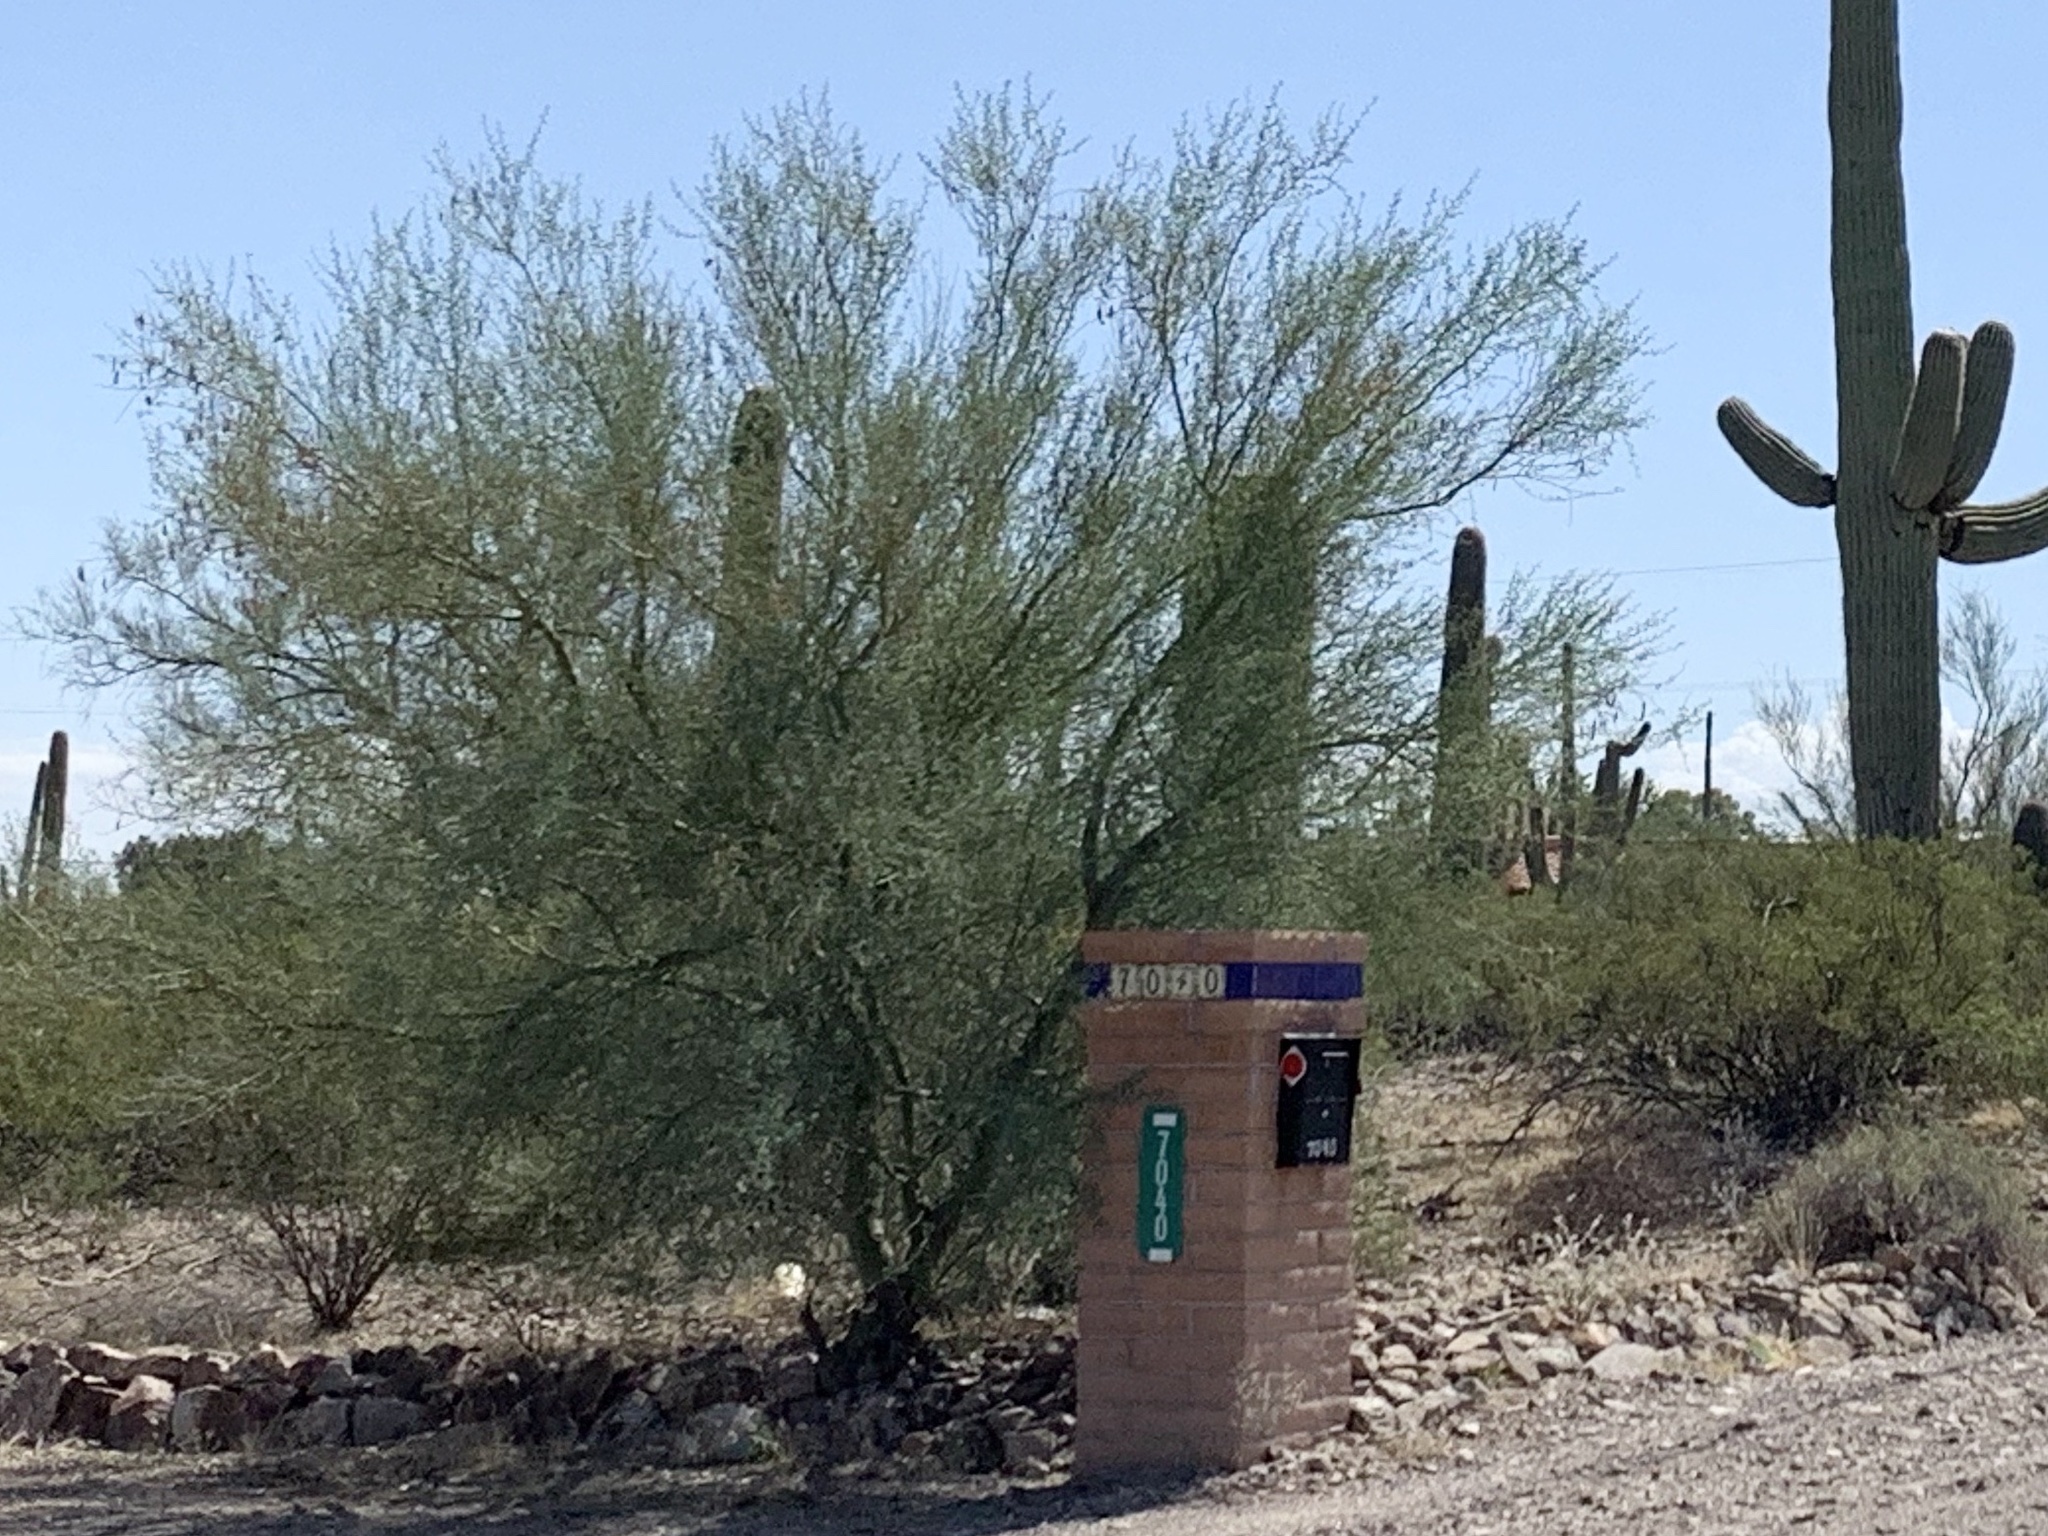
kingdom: Plantae
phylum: Tracheophyta
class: Magnoliopsida
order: Fabales
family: Fabaceae
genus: Parkinsonia
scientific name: Parkinsonia microphylla
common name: Yellow paloverde
